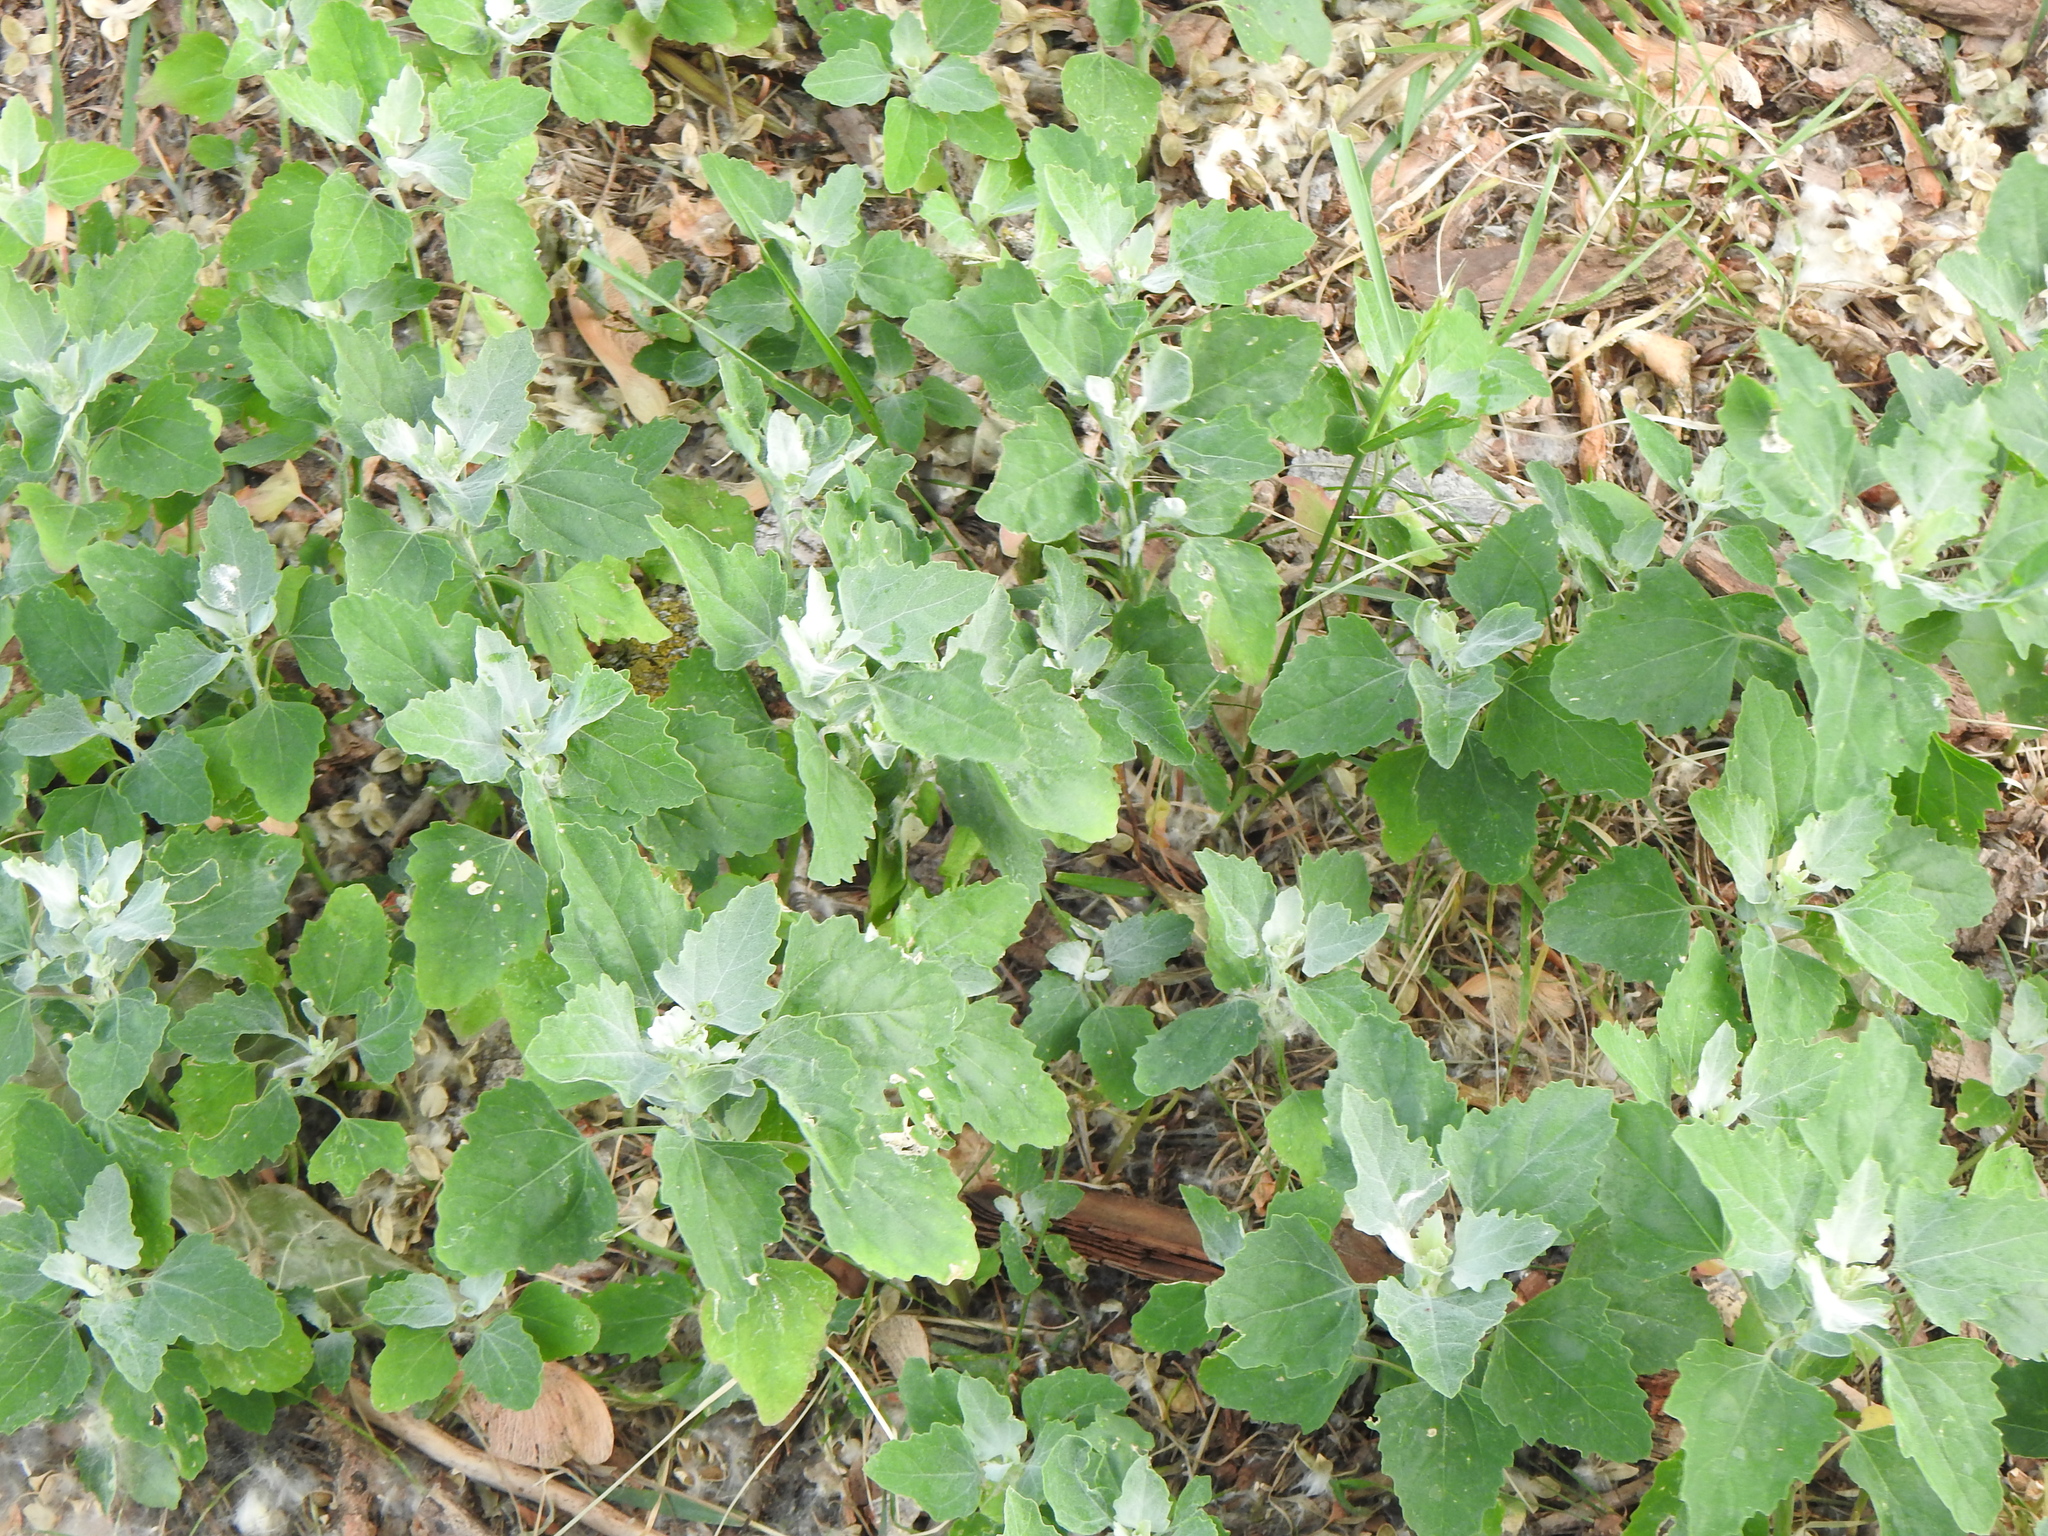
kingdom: Plantae
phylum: Tracheophyta
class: Magnoliopsida
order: Caryophyllales
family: Amaranthaceae
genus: Chenopodium
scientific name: Chenopodium album
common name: Fat-hen
